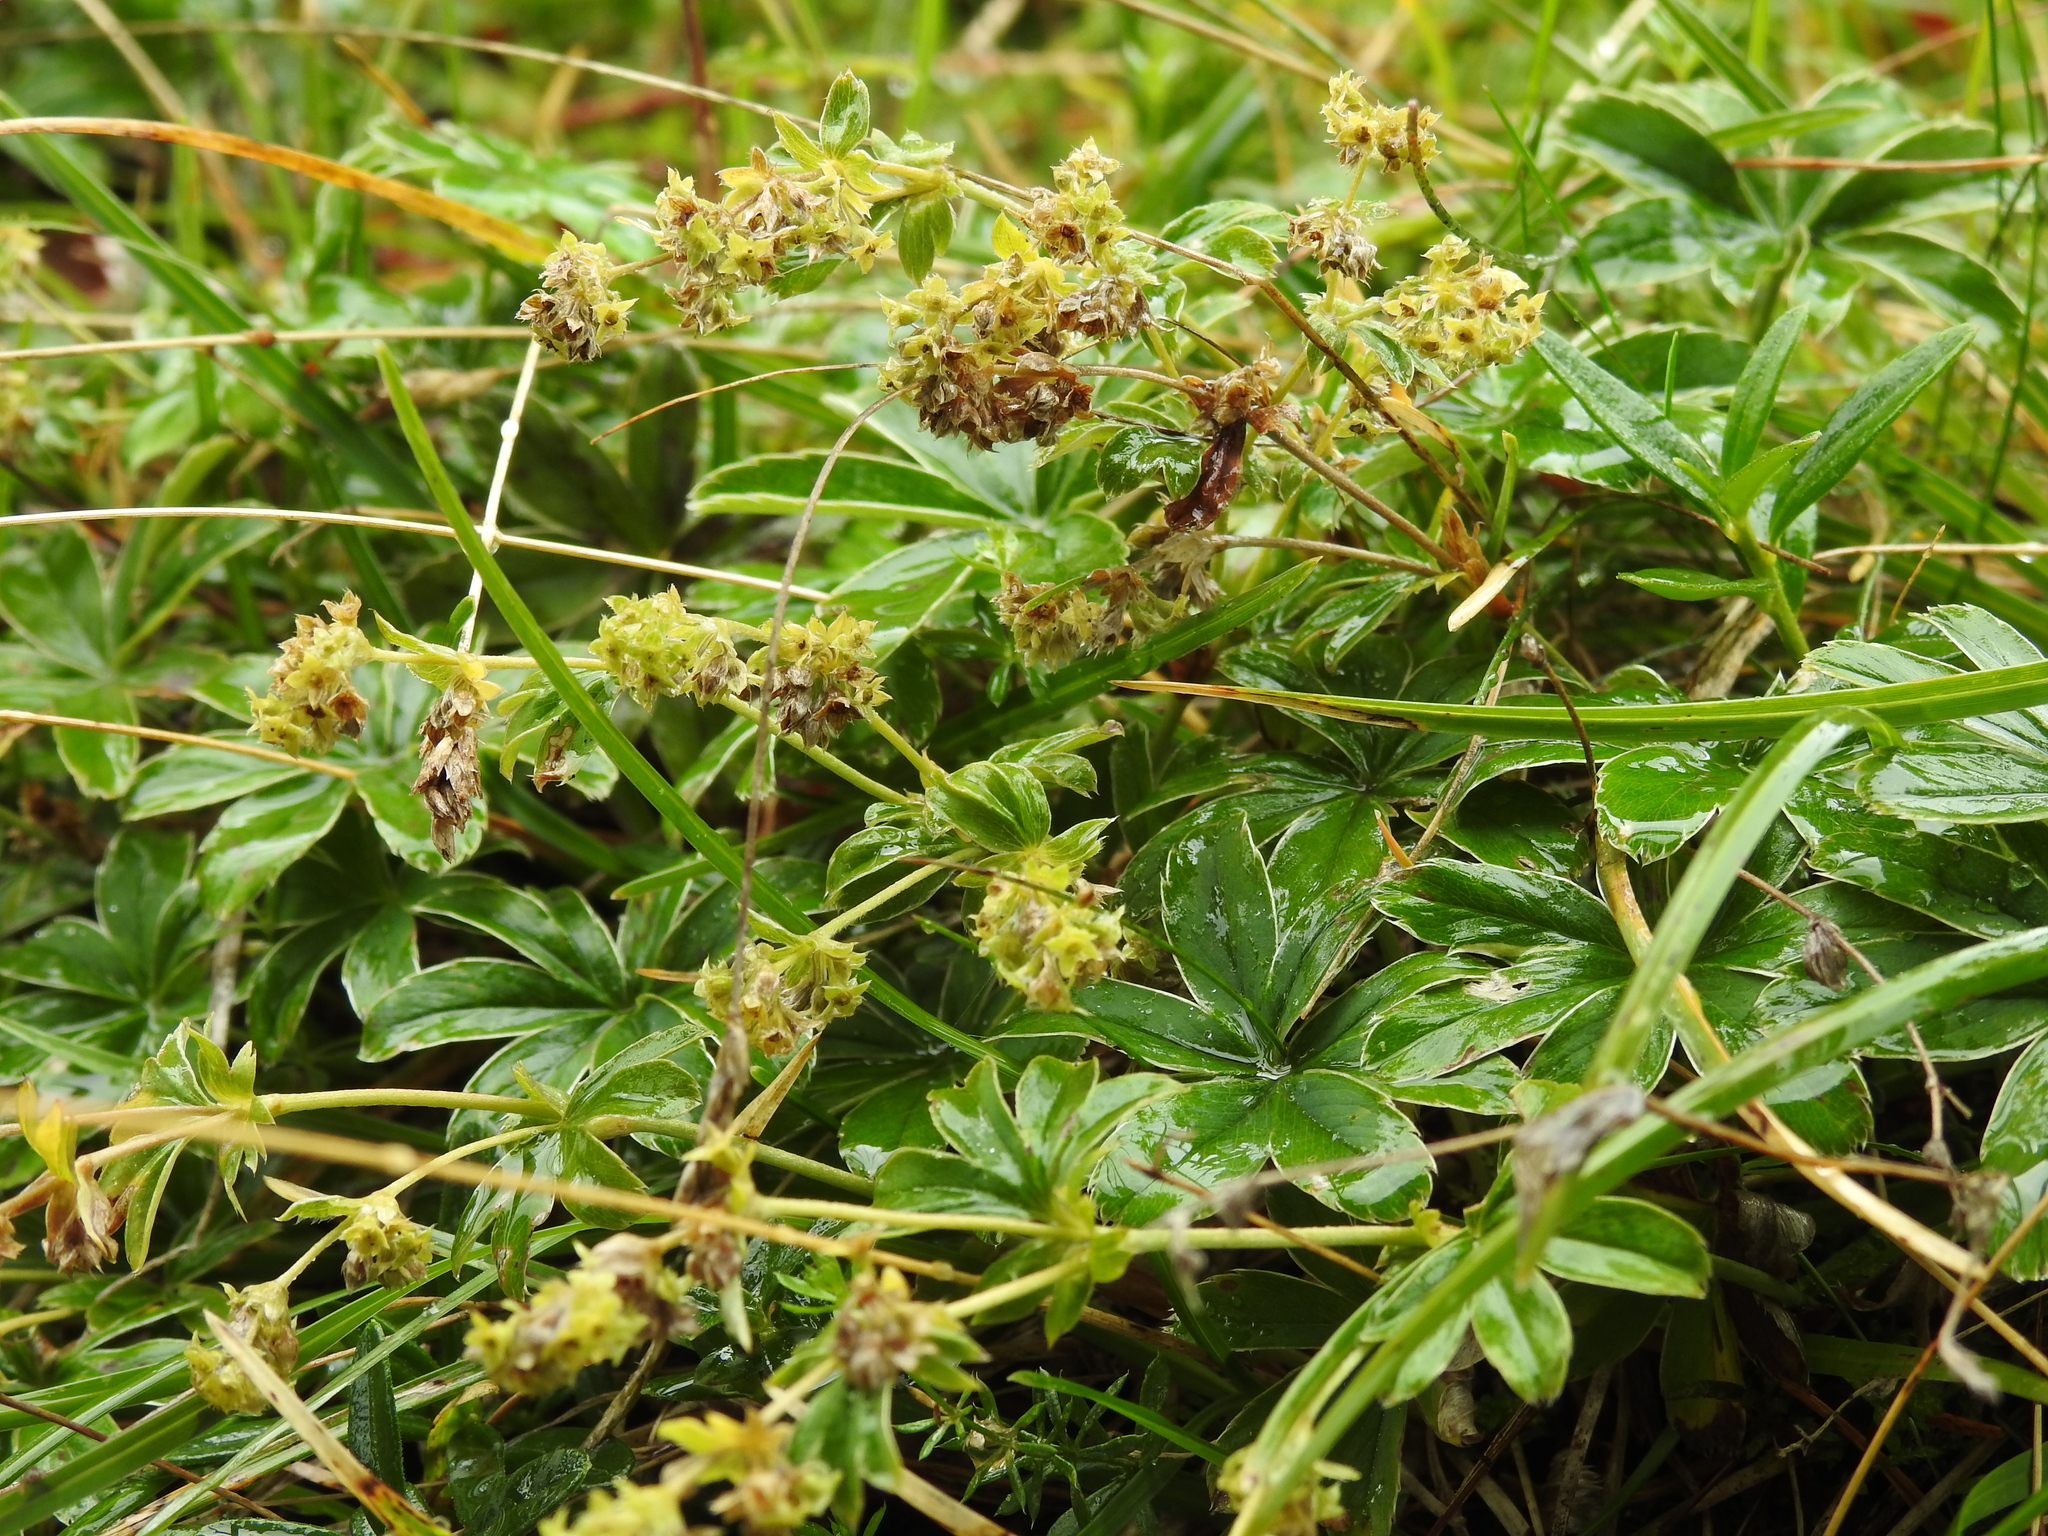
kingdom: Plantae
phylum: Tracheophyta
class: Magnoliopsida
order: Rosales
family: Rosaceae
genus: Alchemilla
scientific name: Alchemilla pallens
